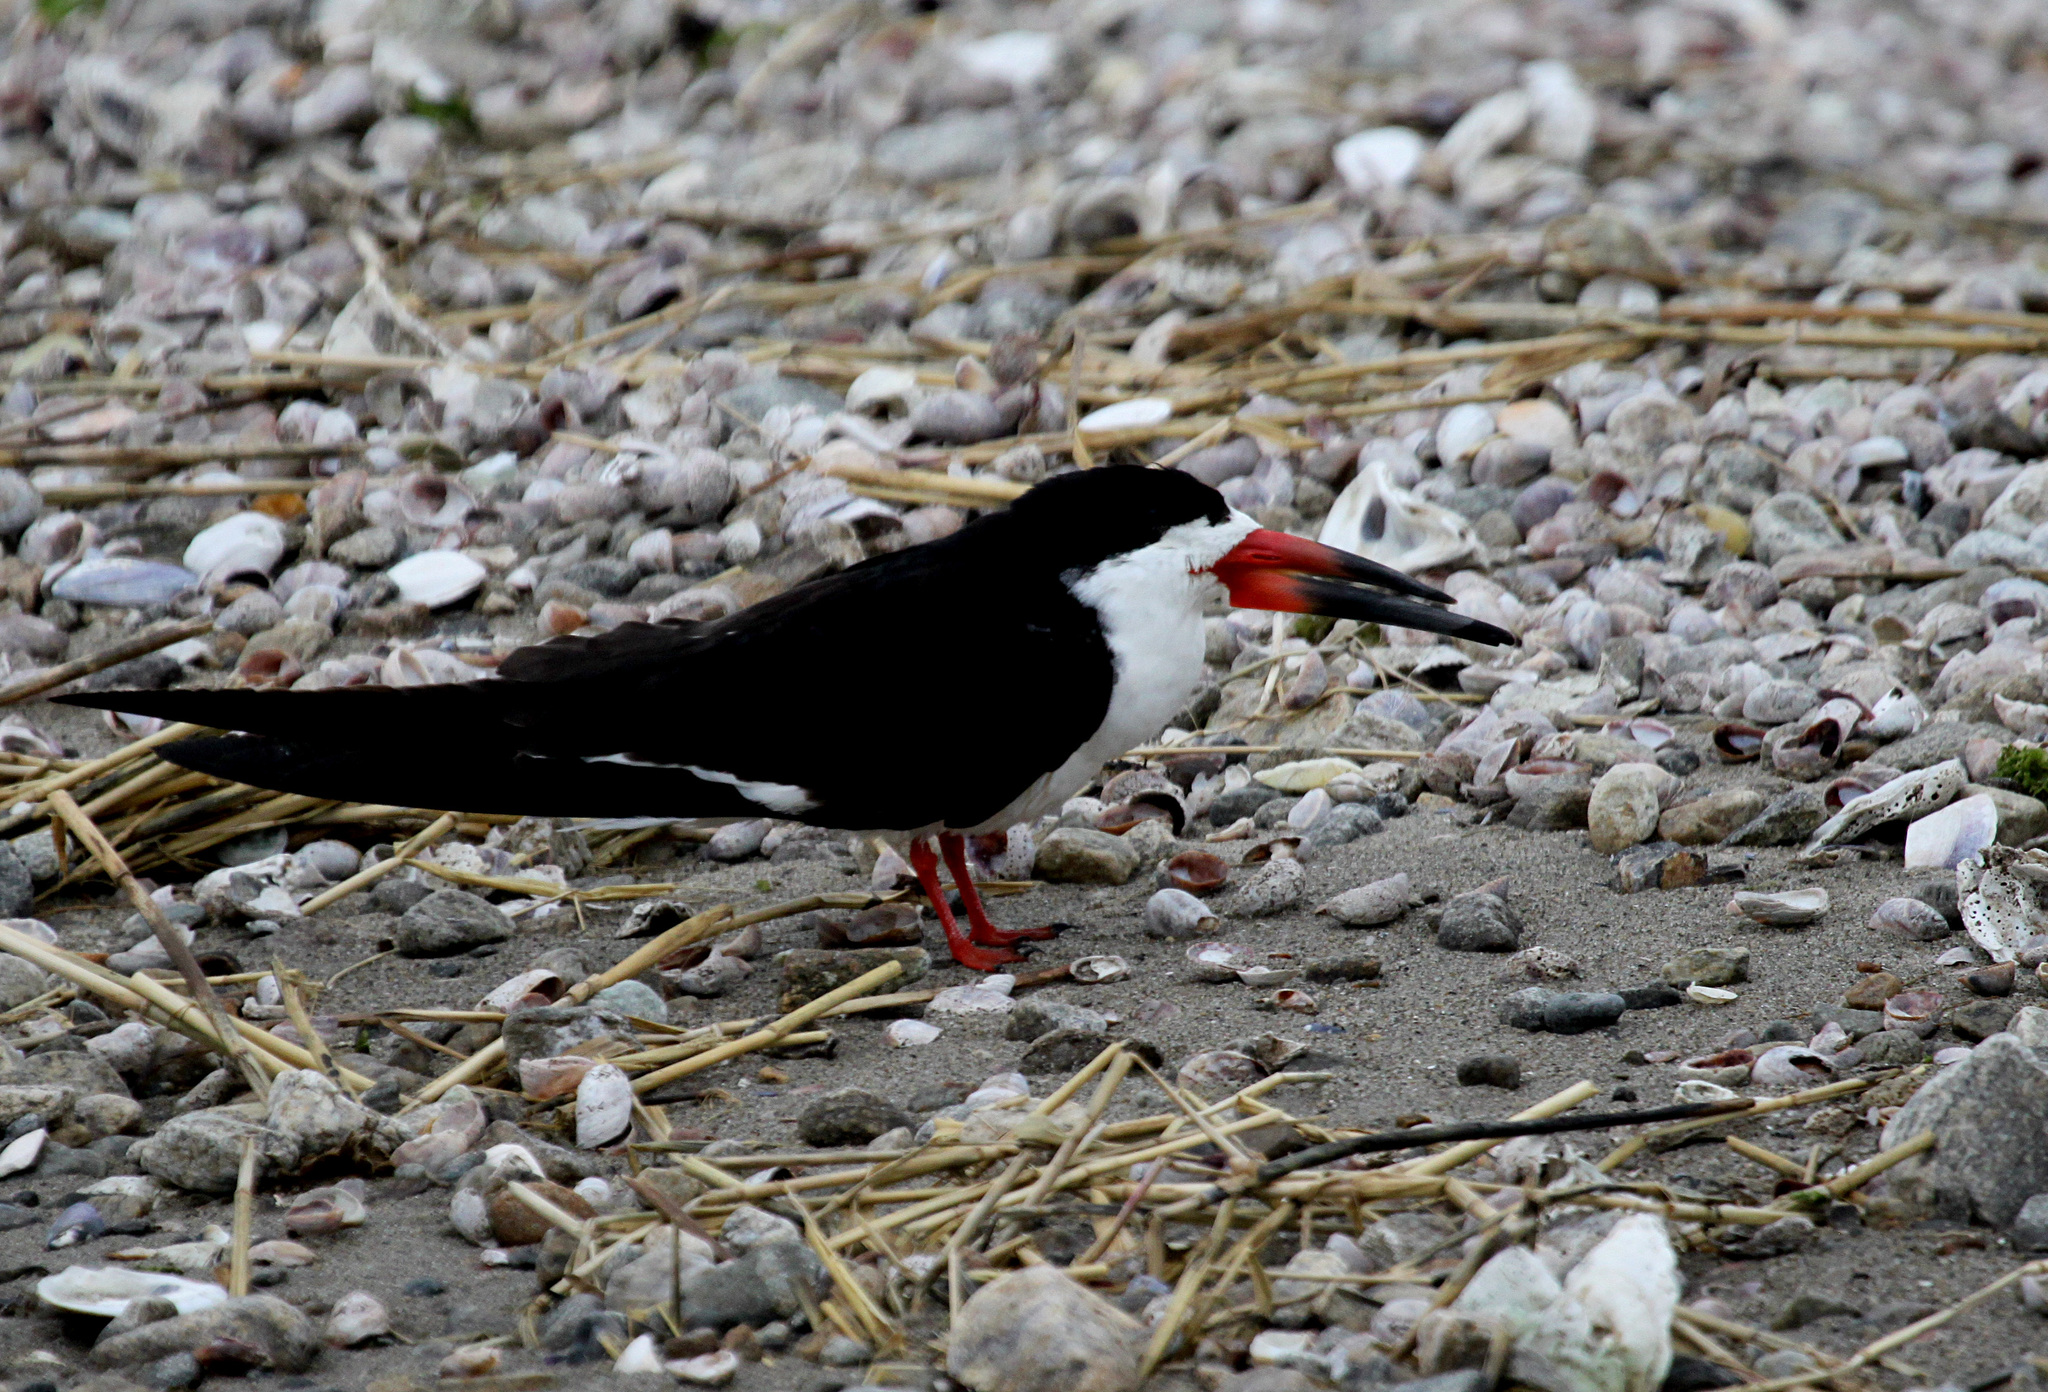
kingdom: Animalia
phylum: Chordata
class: Aves
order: Charadriiformes
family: Laridae
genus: Rynchops
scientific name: Rynchops niger
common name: Black skimmer
